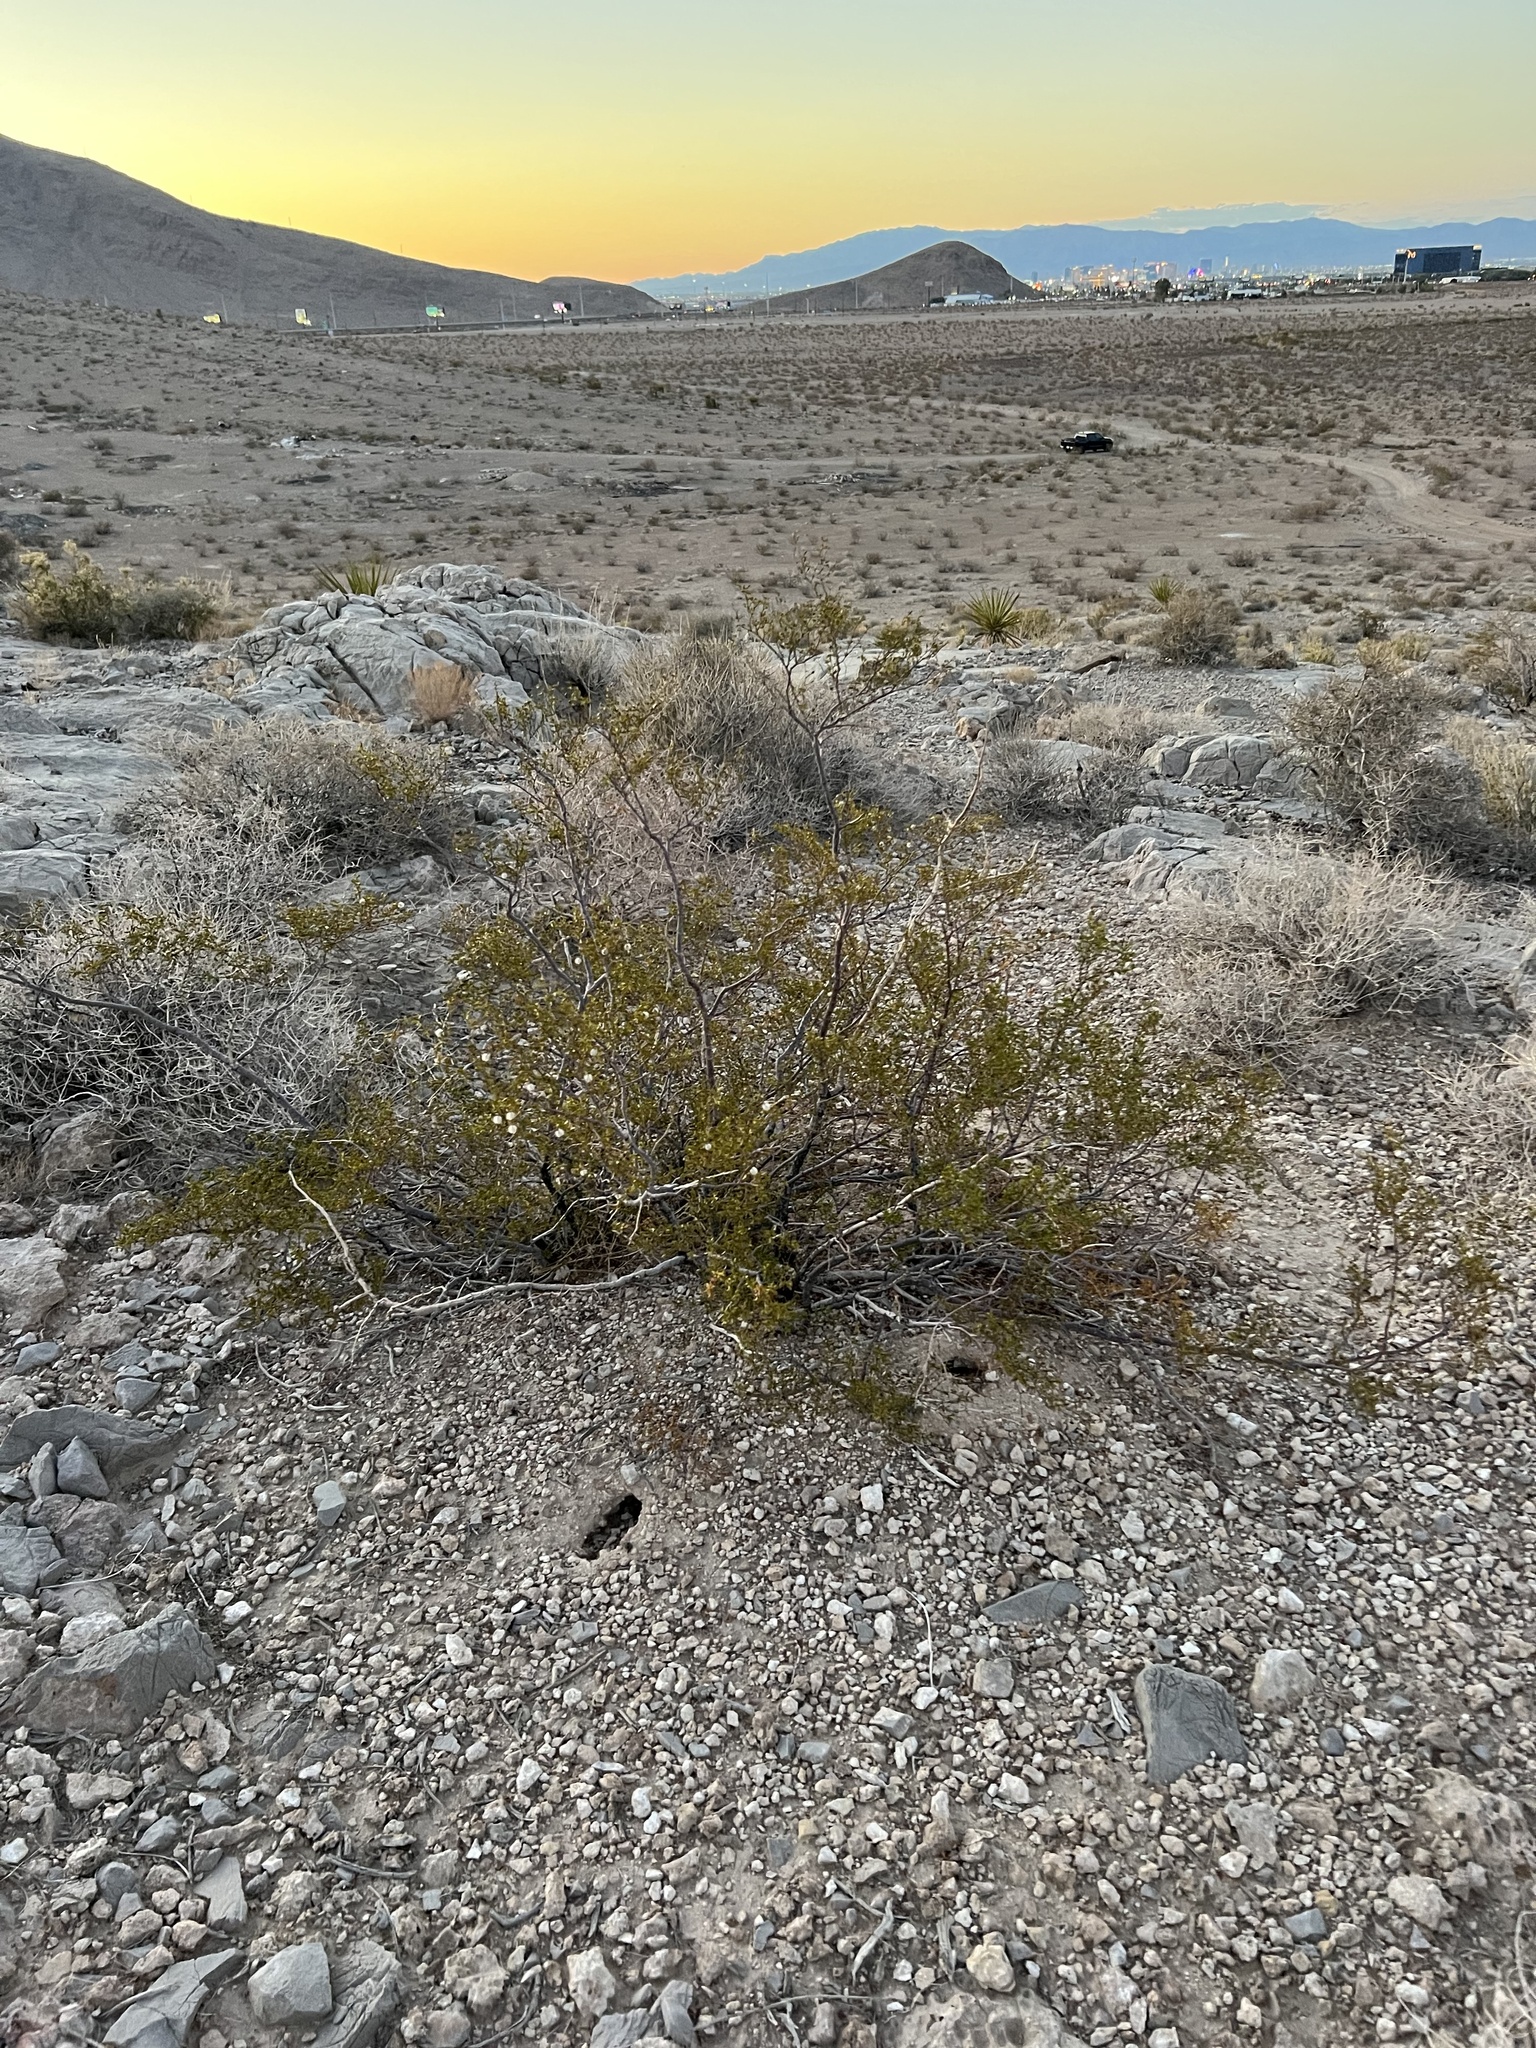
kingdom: Plantae
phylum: Tracheophyta
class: Magnoliopsida
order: Zygophyllales
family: Zygophyllaceae
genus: Larrea
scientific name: Larrea tridentata
